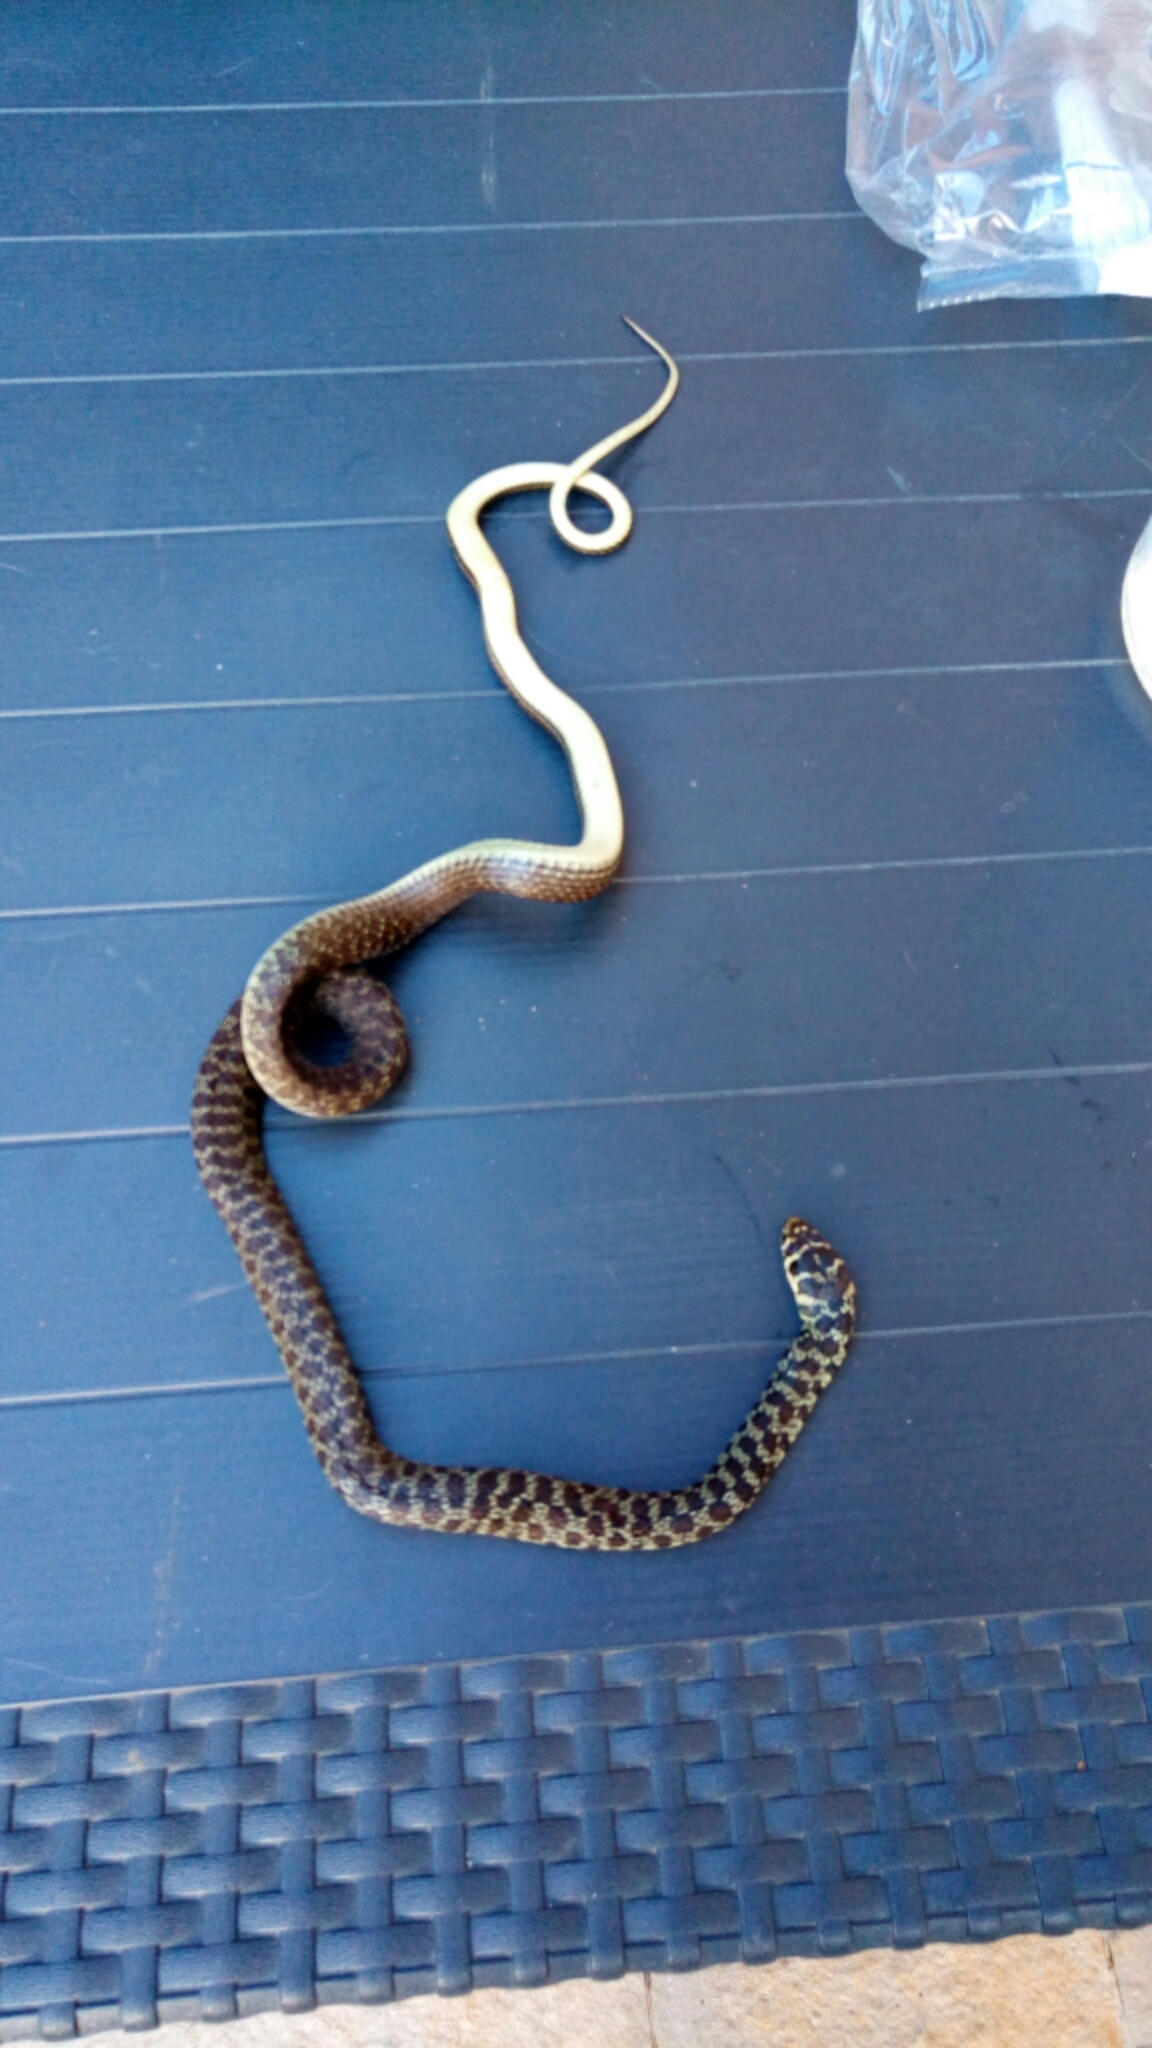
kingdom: Animalia
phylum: Chordata
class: Squamata
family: Colubridae
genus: Hierophis
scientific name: Hierophis viridiflavus
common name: Green whip snake
